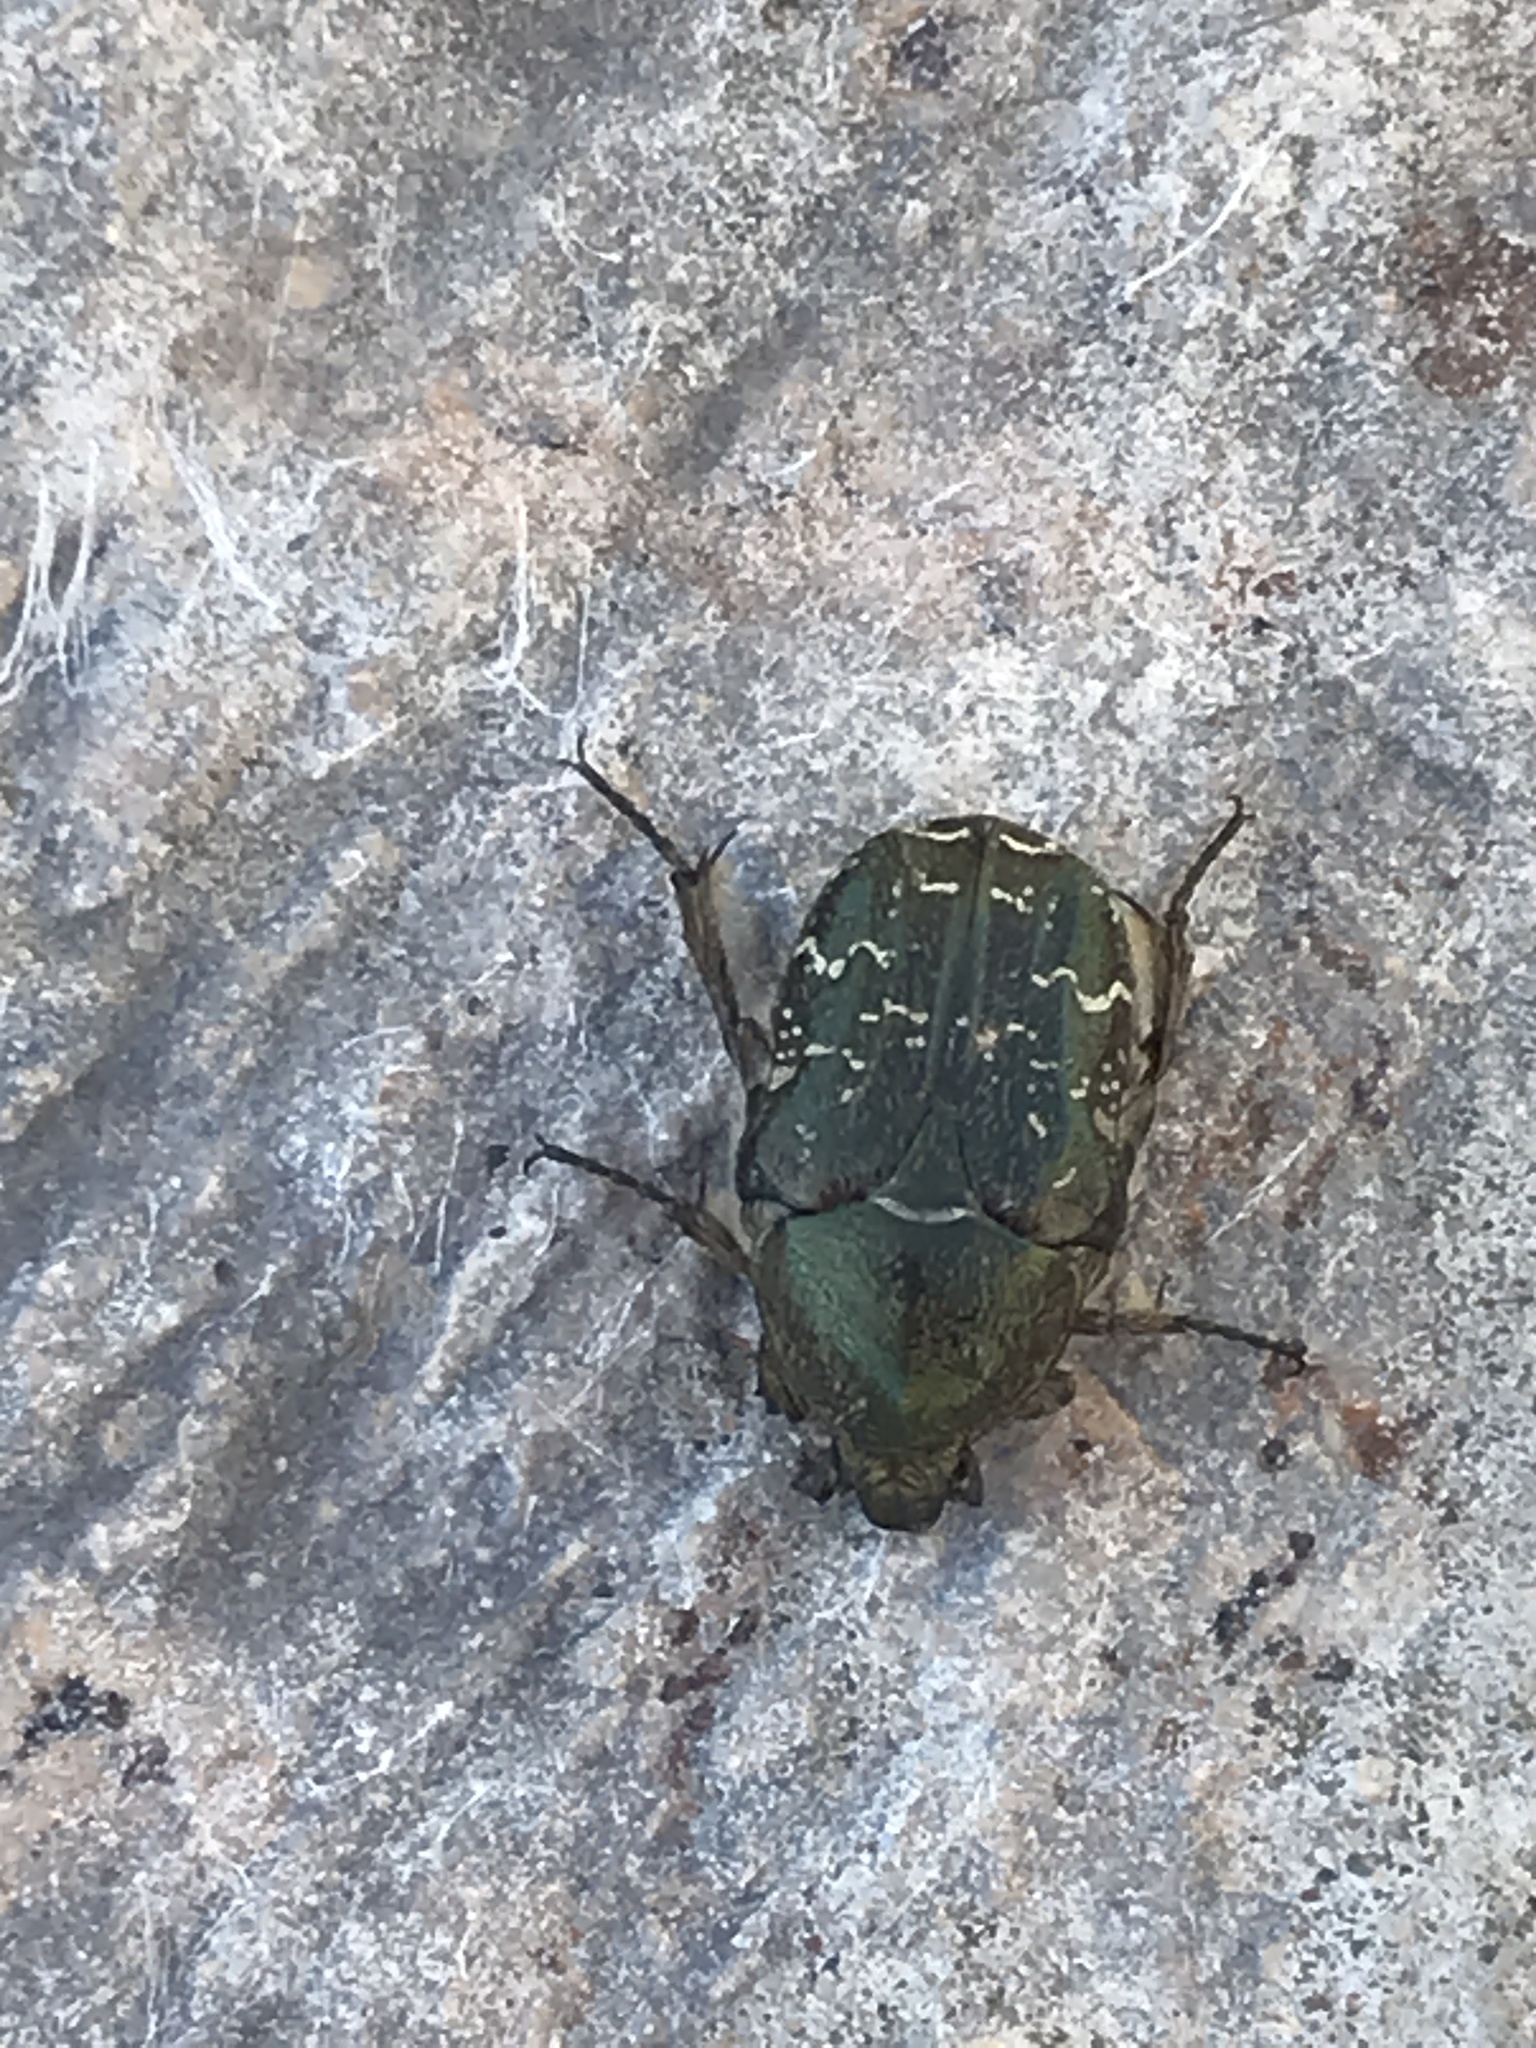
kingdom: Animalia
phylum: Arthropoda
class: Insecta
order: Coleoptera
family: Scarabaeidae
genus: Euphoria
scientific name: Euphoria sepulcralis
